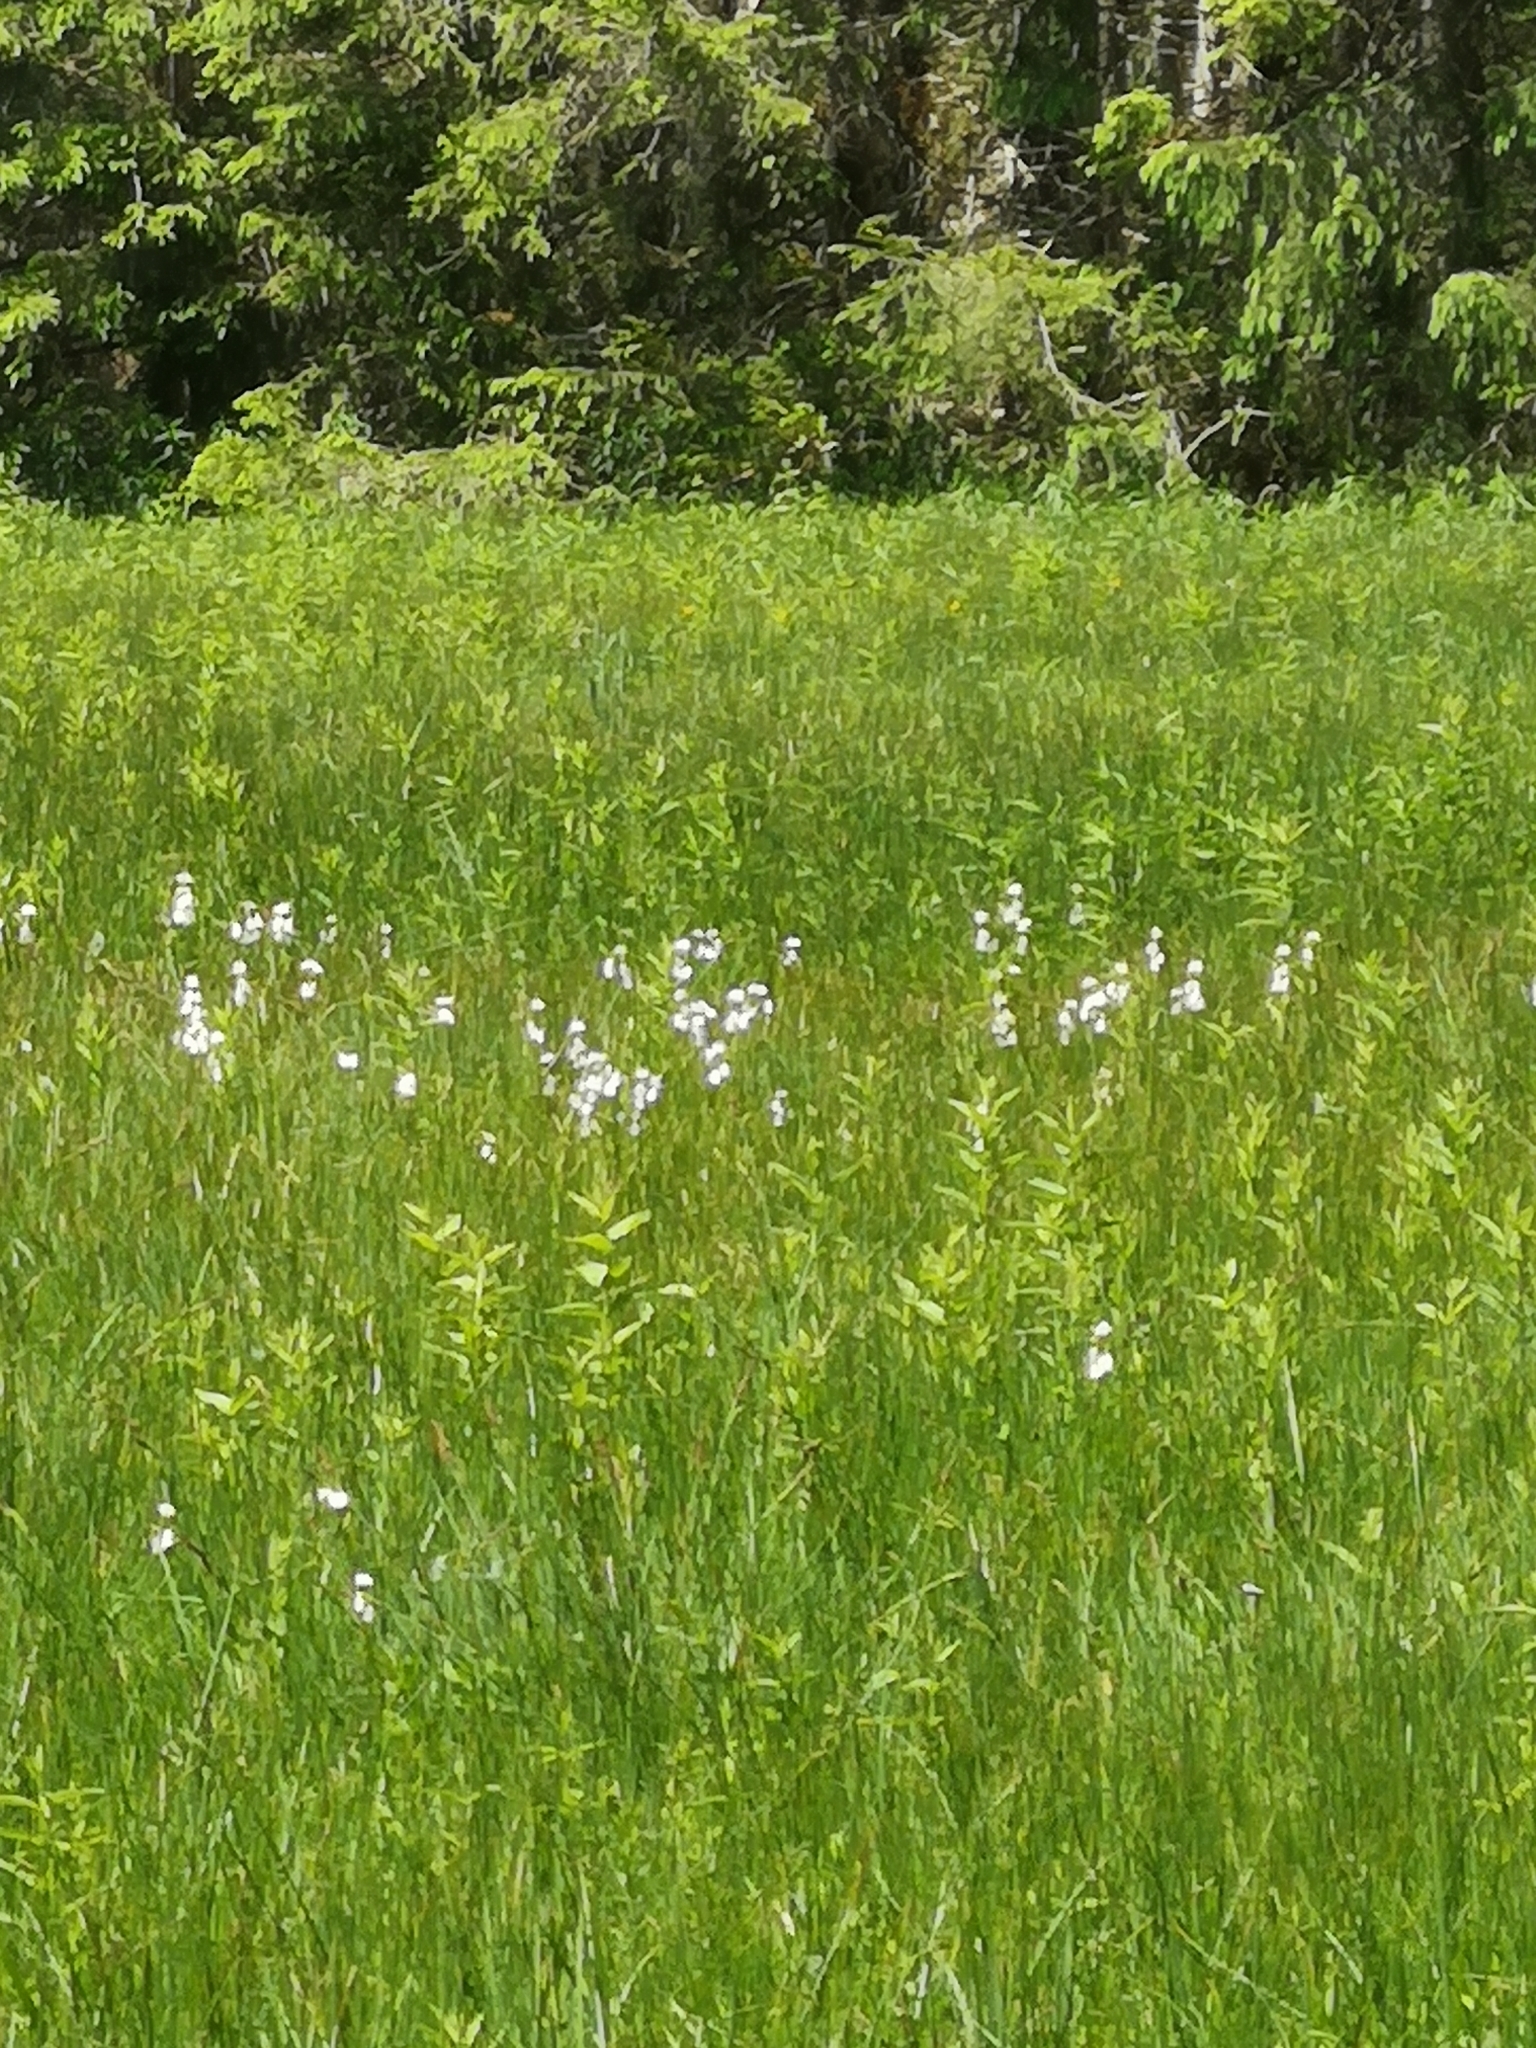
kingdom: Plantae
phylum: Tracheophyta
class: Liliopsida
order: Asparagales
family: Orchidaceae
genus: Epipactis
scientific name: Epipactis palustris
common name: Marsh helleborine
